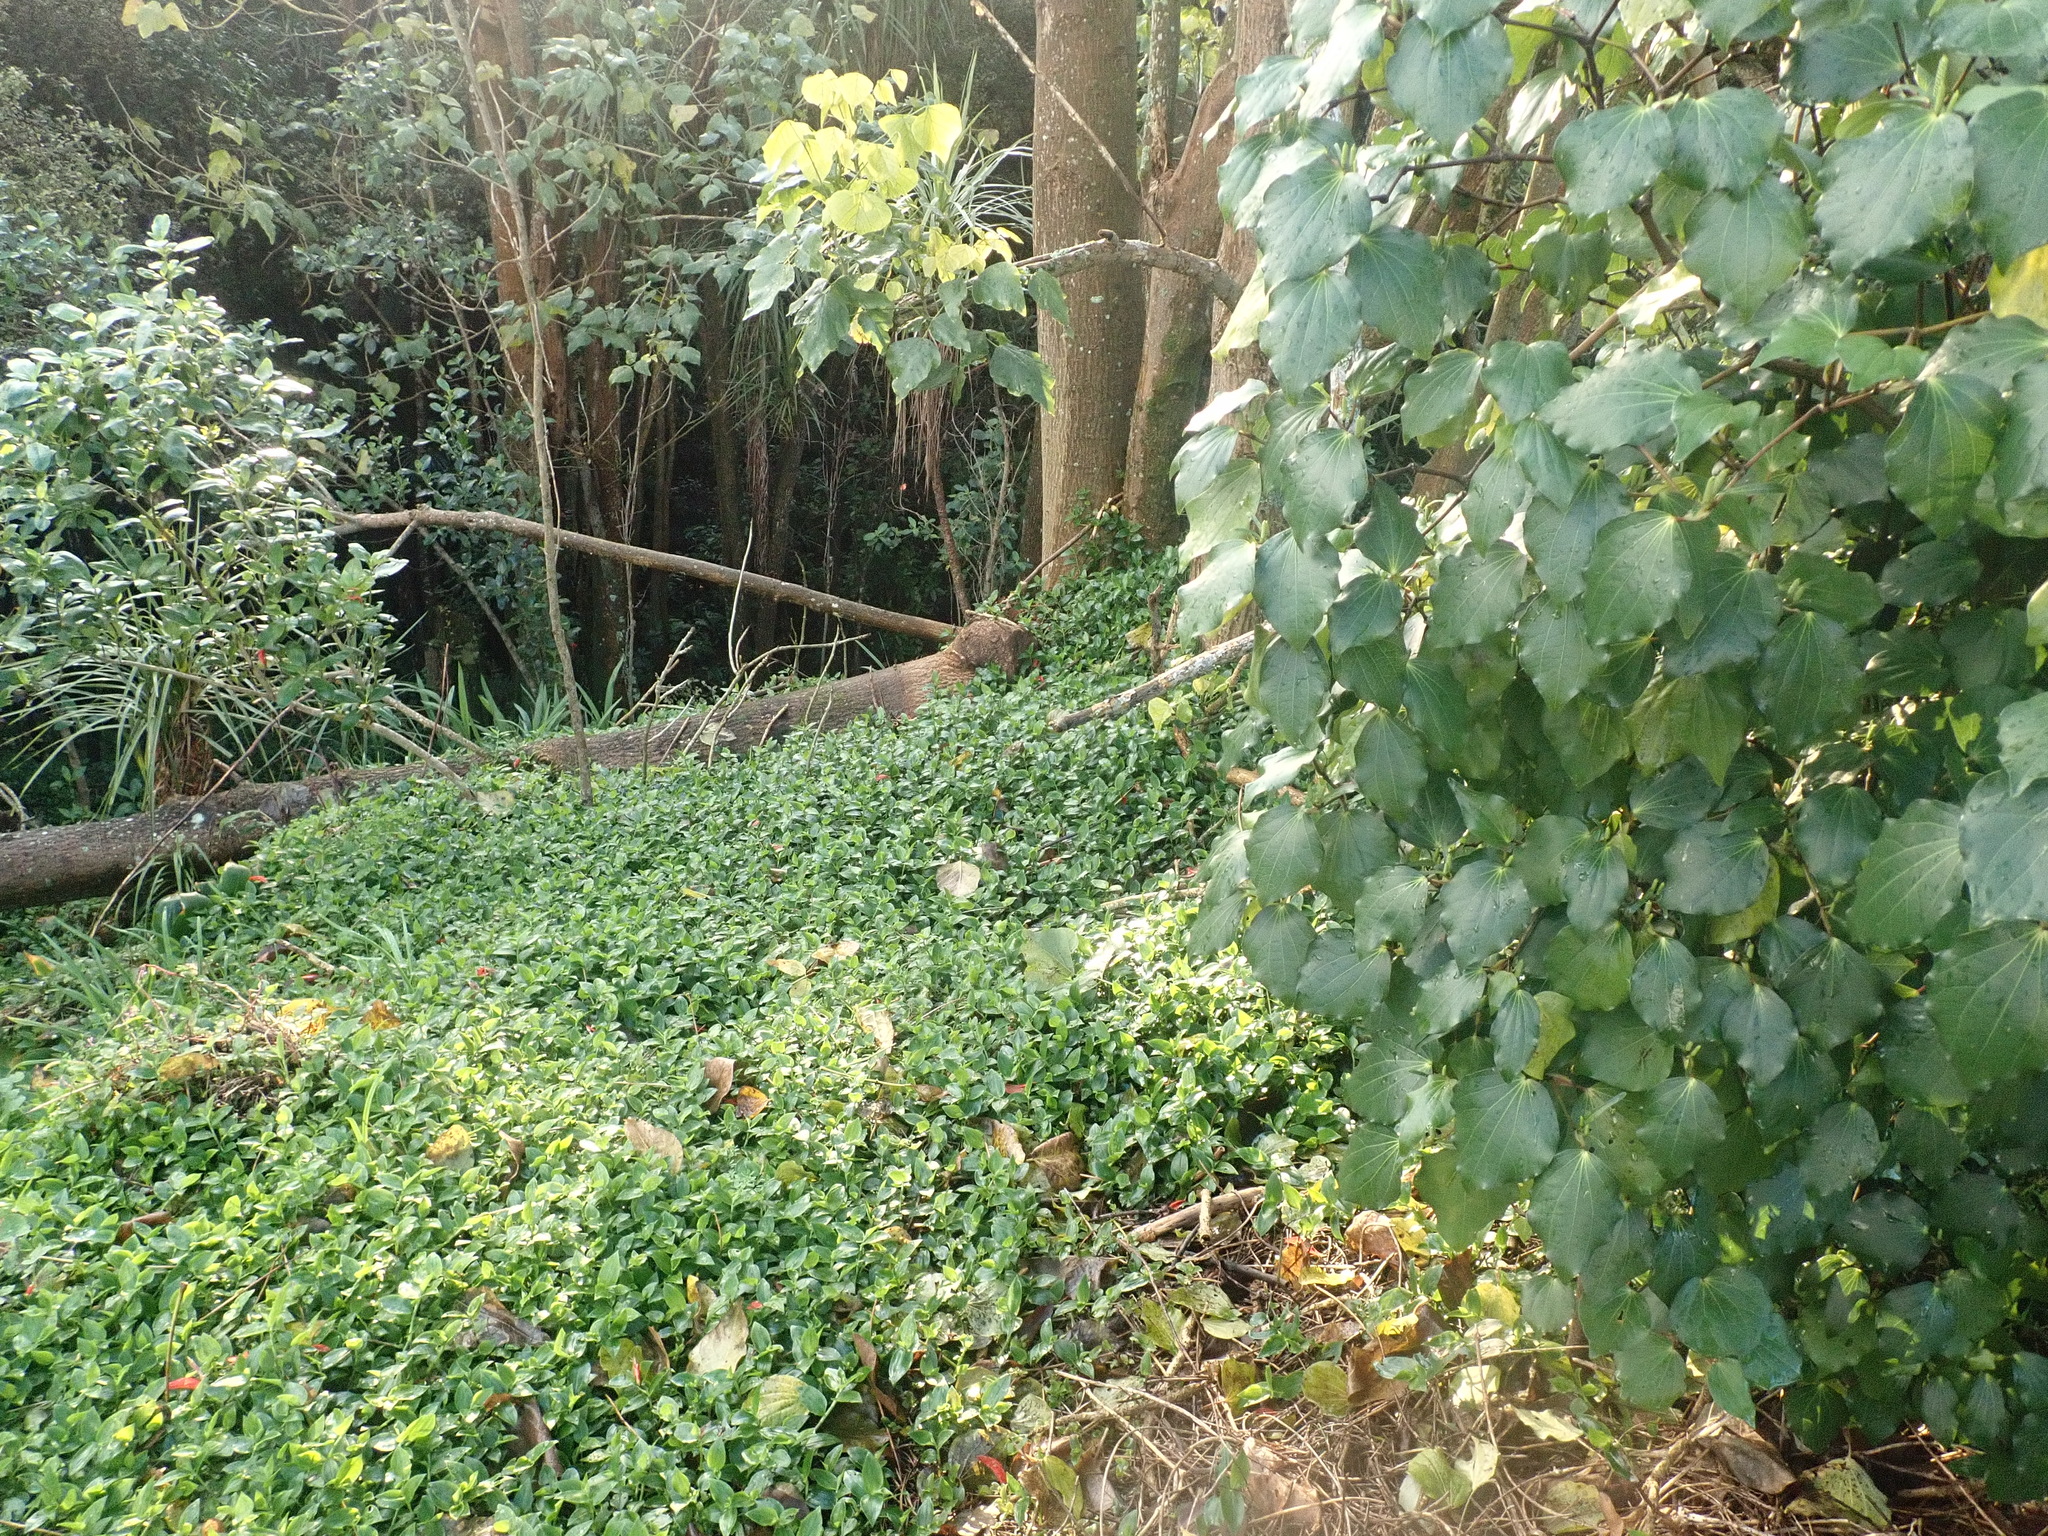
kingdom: Plantae
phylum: Tracheophyta
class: Liliopsida
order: Commelinales
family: Commelinaceae
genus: Tradescantia
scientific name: Tradescantia fluminensis
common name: Wandering-jew
